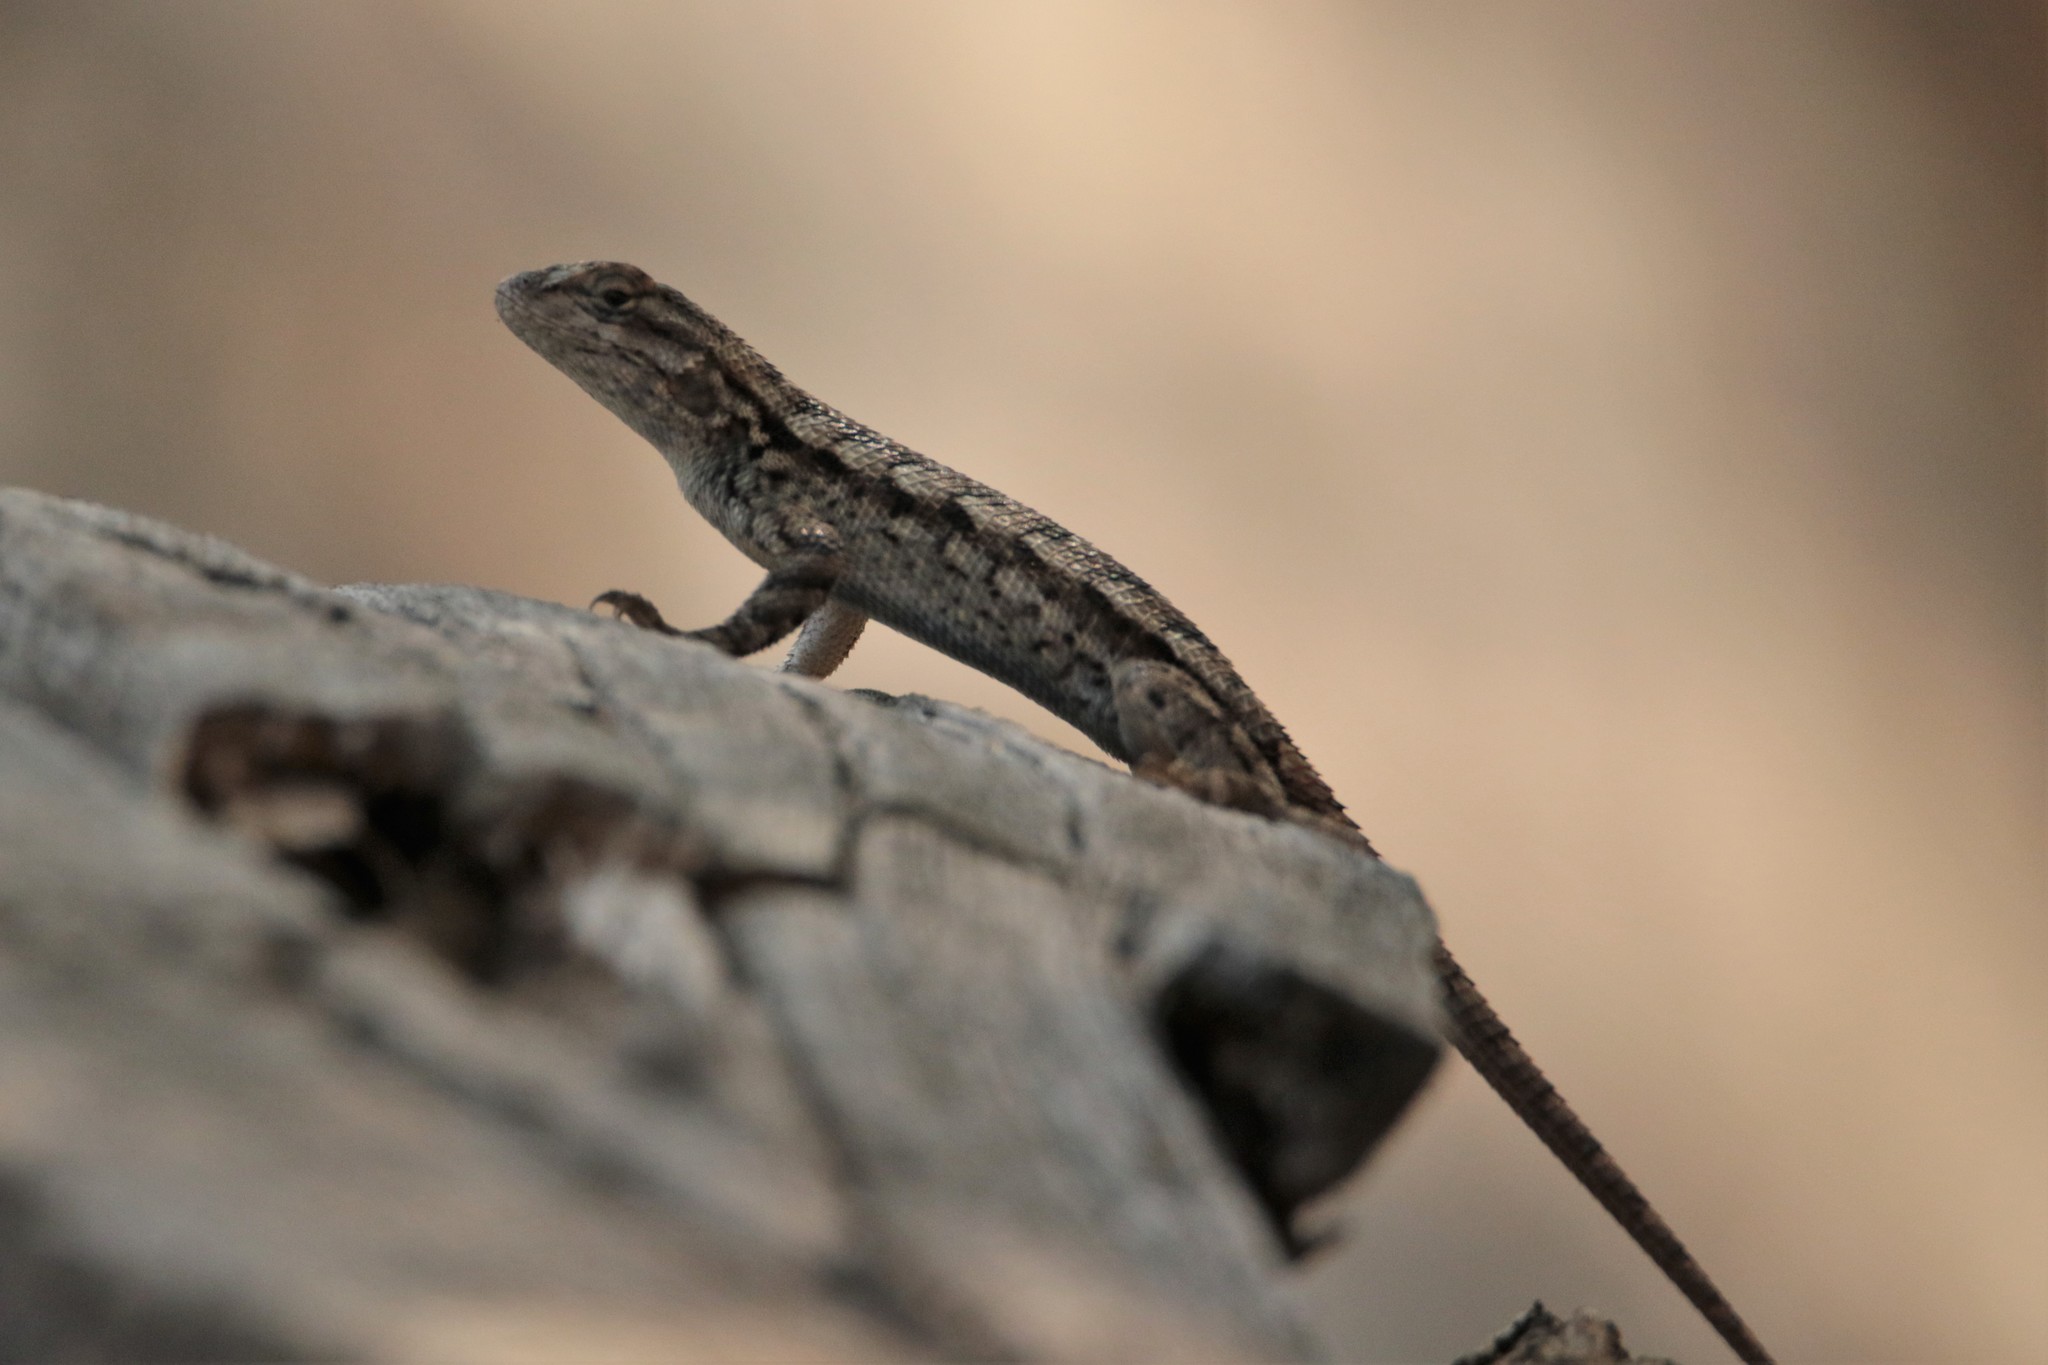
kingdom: Animalia
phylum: Chordata
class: Squamata
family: Phrynosomatidae
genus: Sceloporus
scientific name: Sceloporus occidentalis
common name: Western fence lizard
